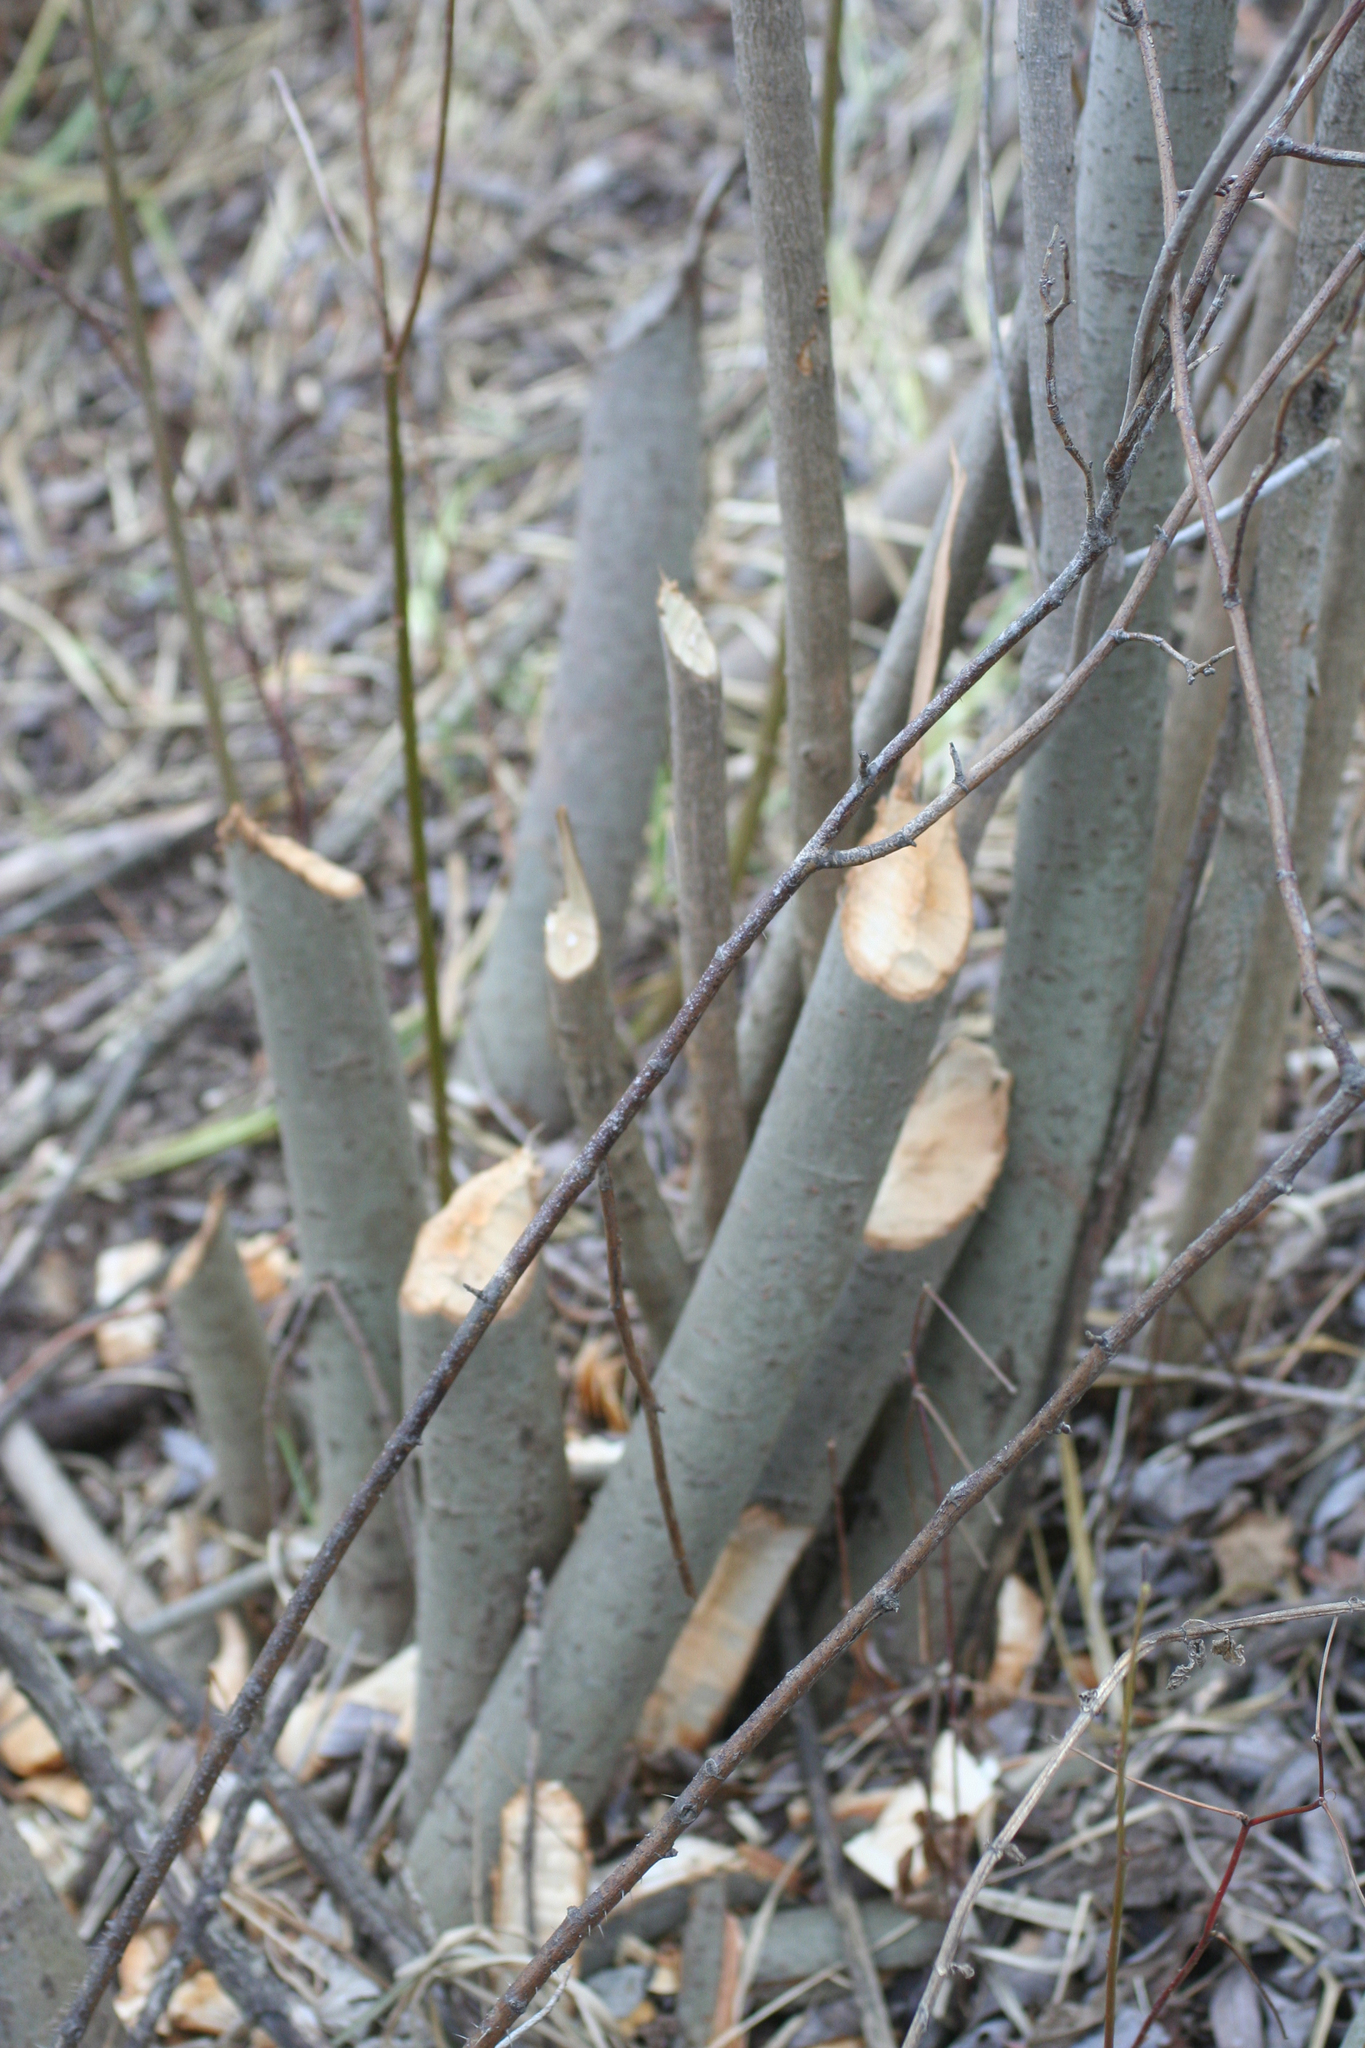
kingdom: Animalia
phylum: Chordata
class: Mammalia
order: Rodentia
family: Castoridae
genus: Castor
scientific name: Castor fiber
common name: Eurasian beaver
